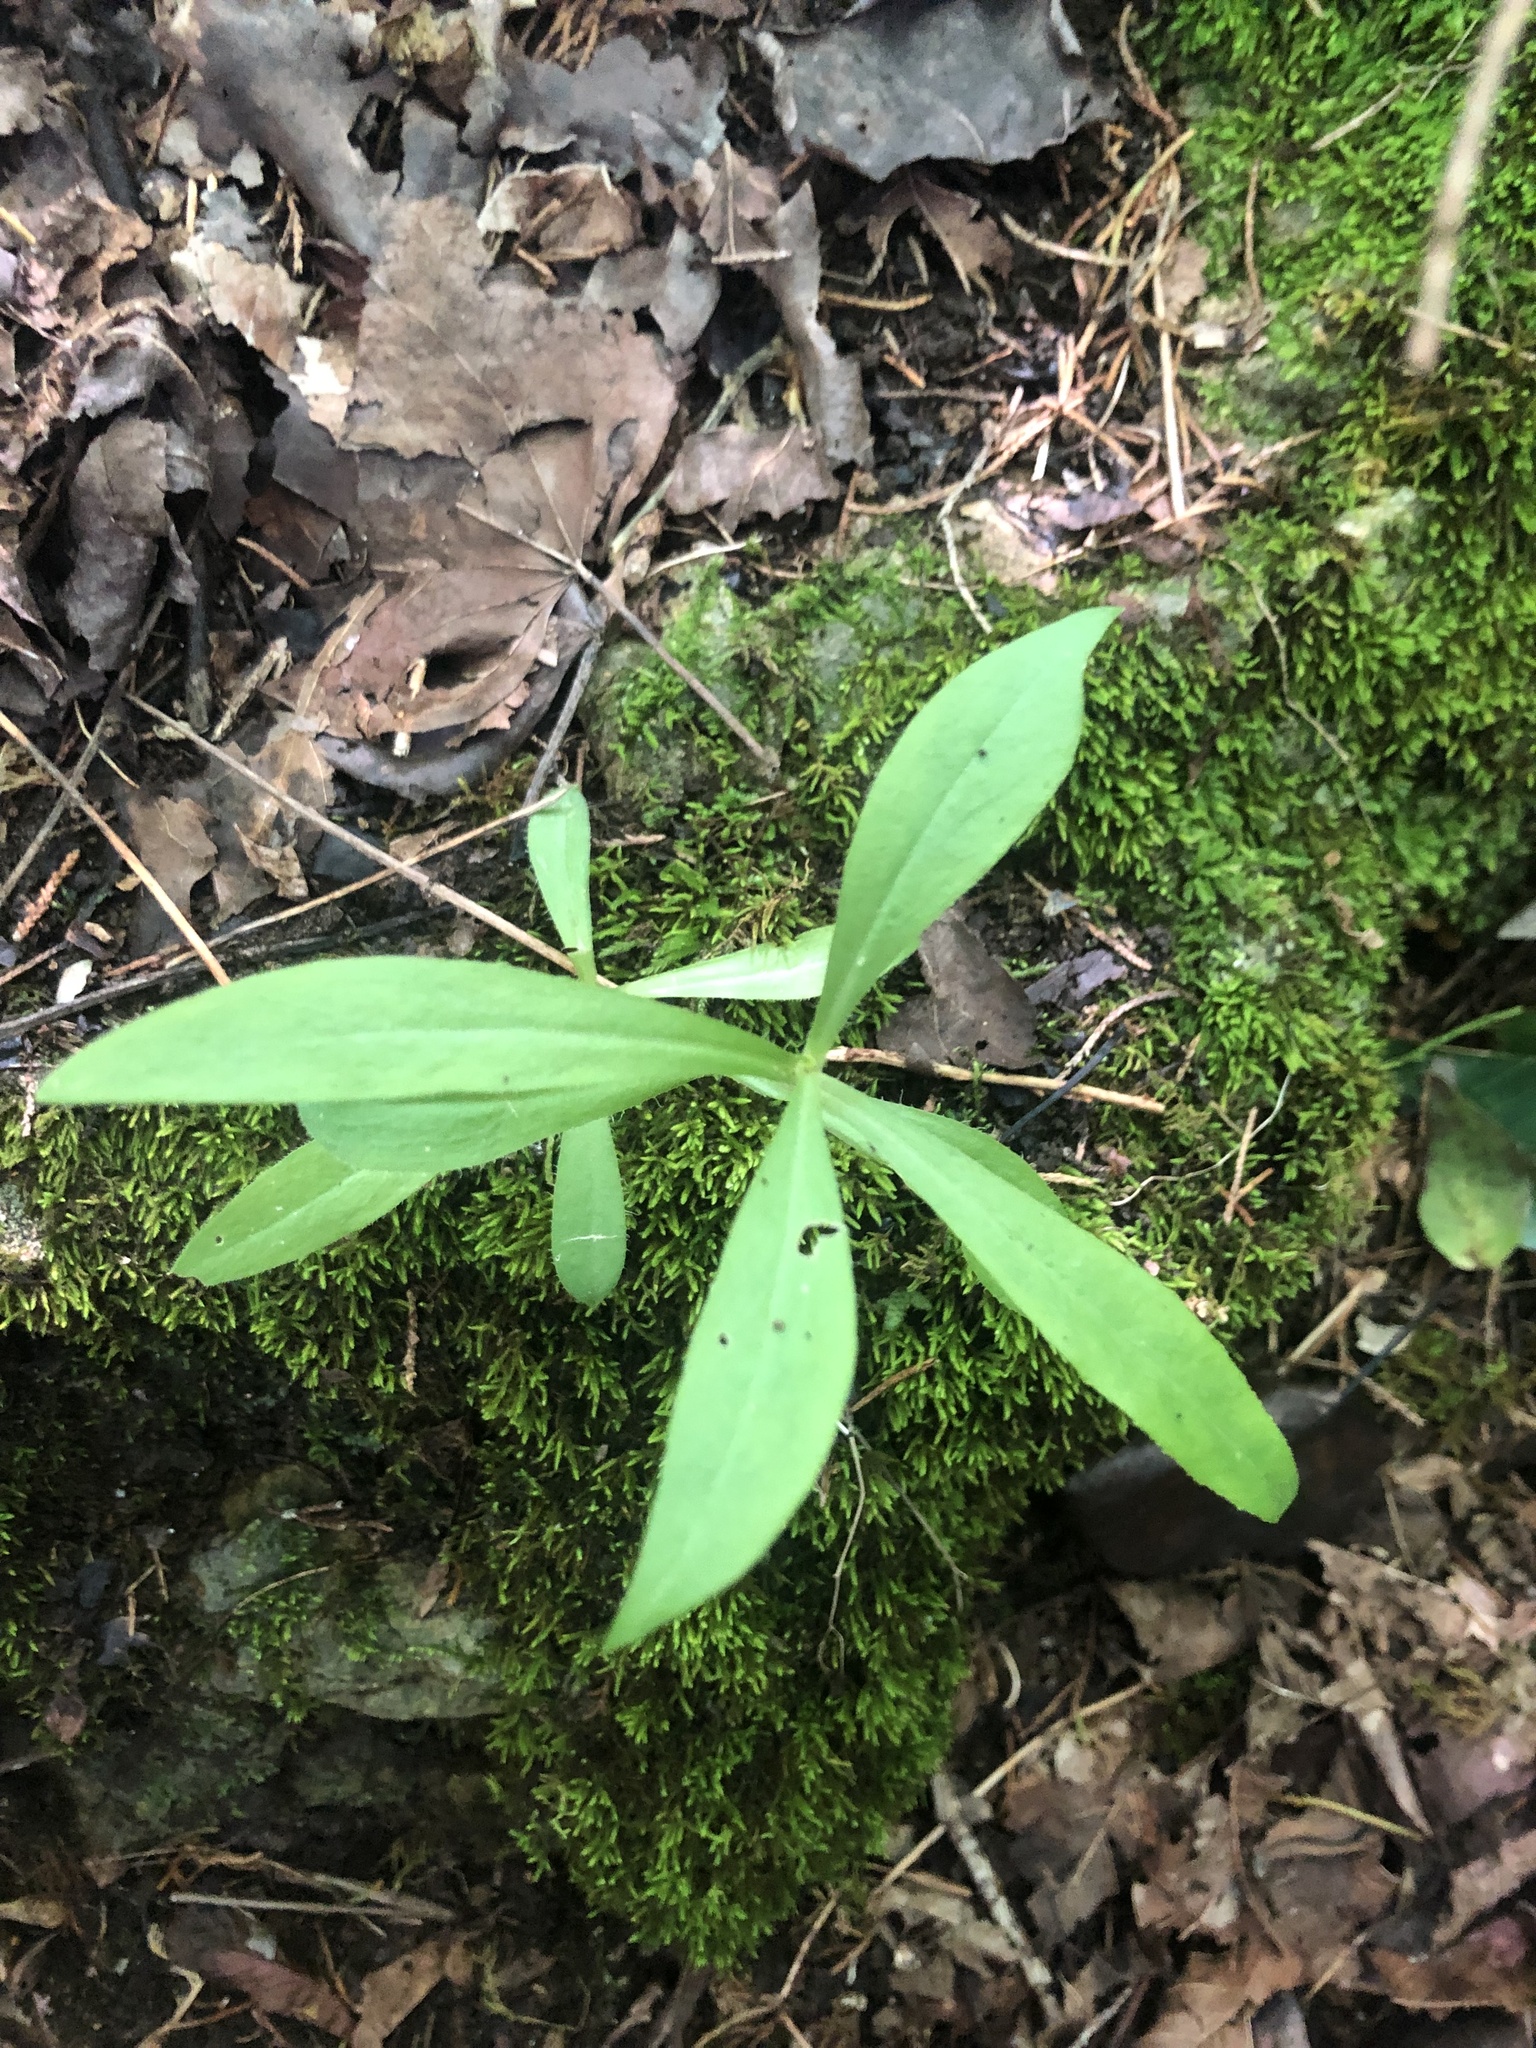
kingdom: Plantae
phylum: Tracheophyta
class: Magnoliopsida
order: Caryophyllales
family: Caryophyllaceae
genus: Silene
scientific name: Silene caroliniana
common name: Sticky catchfly
